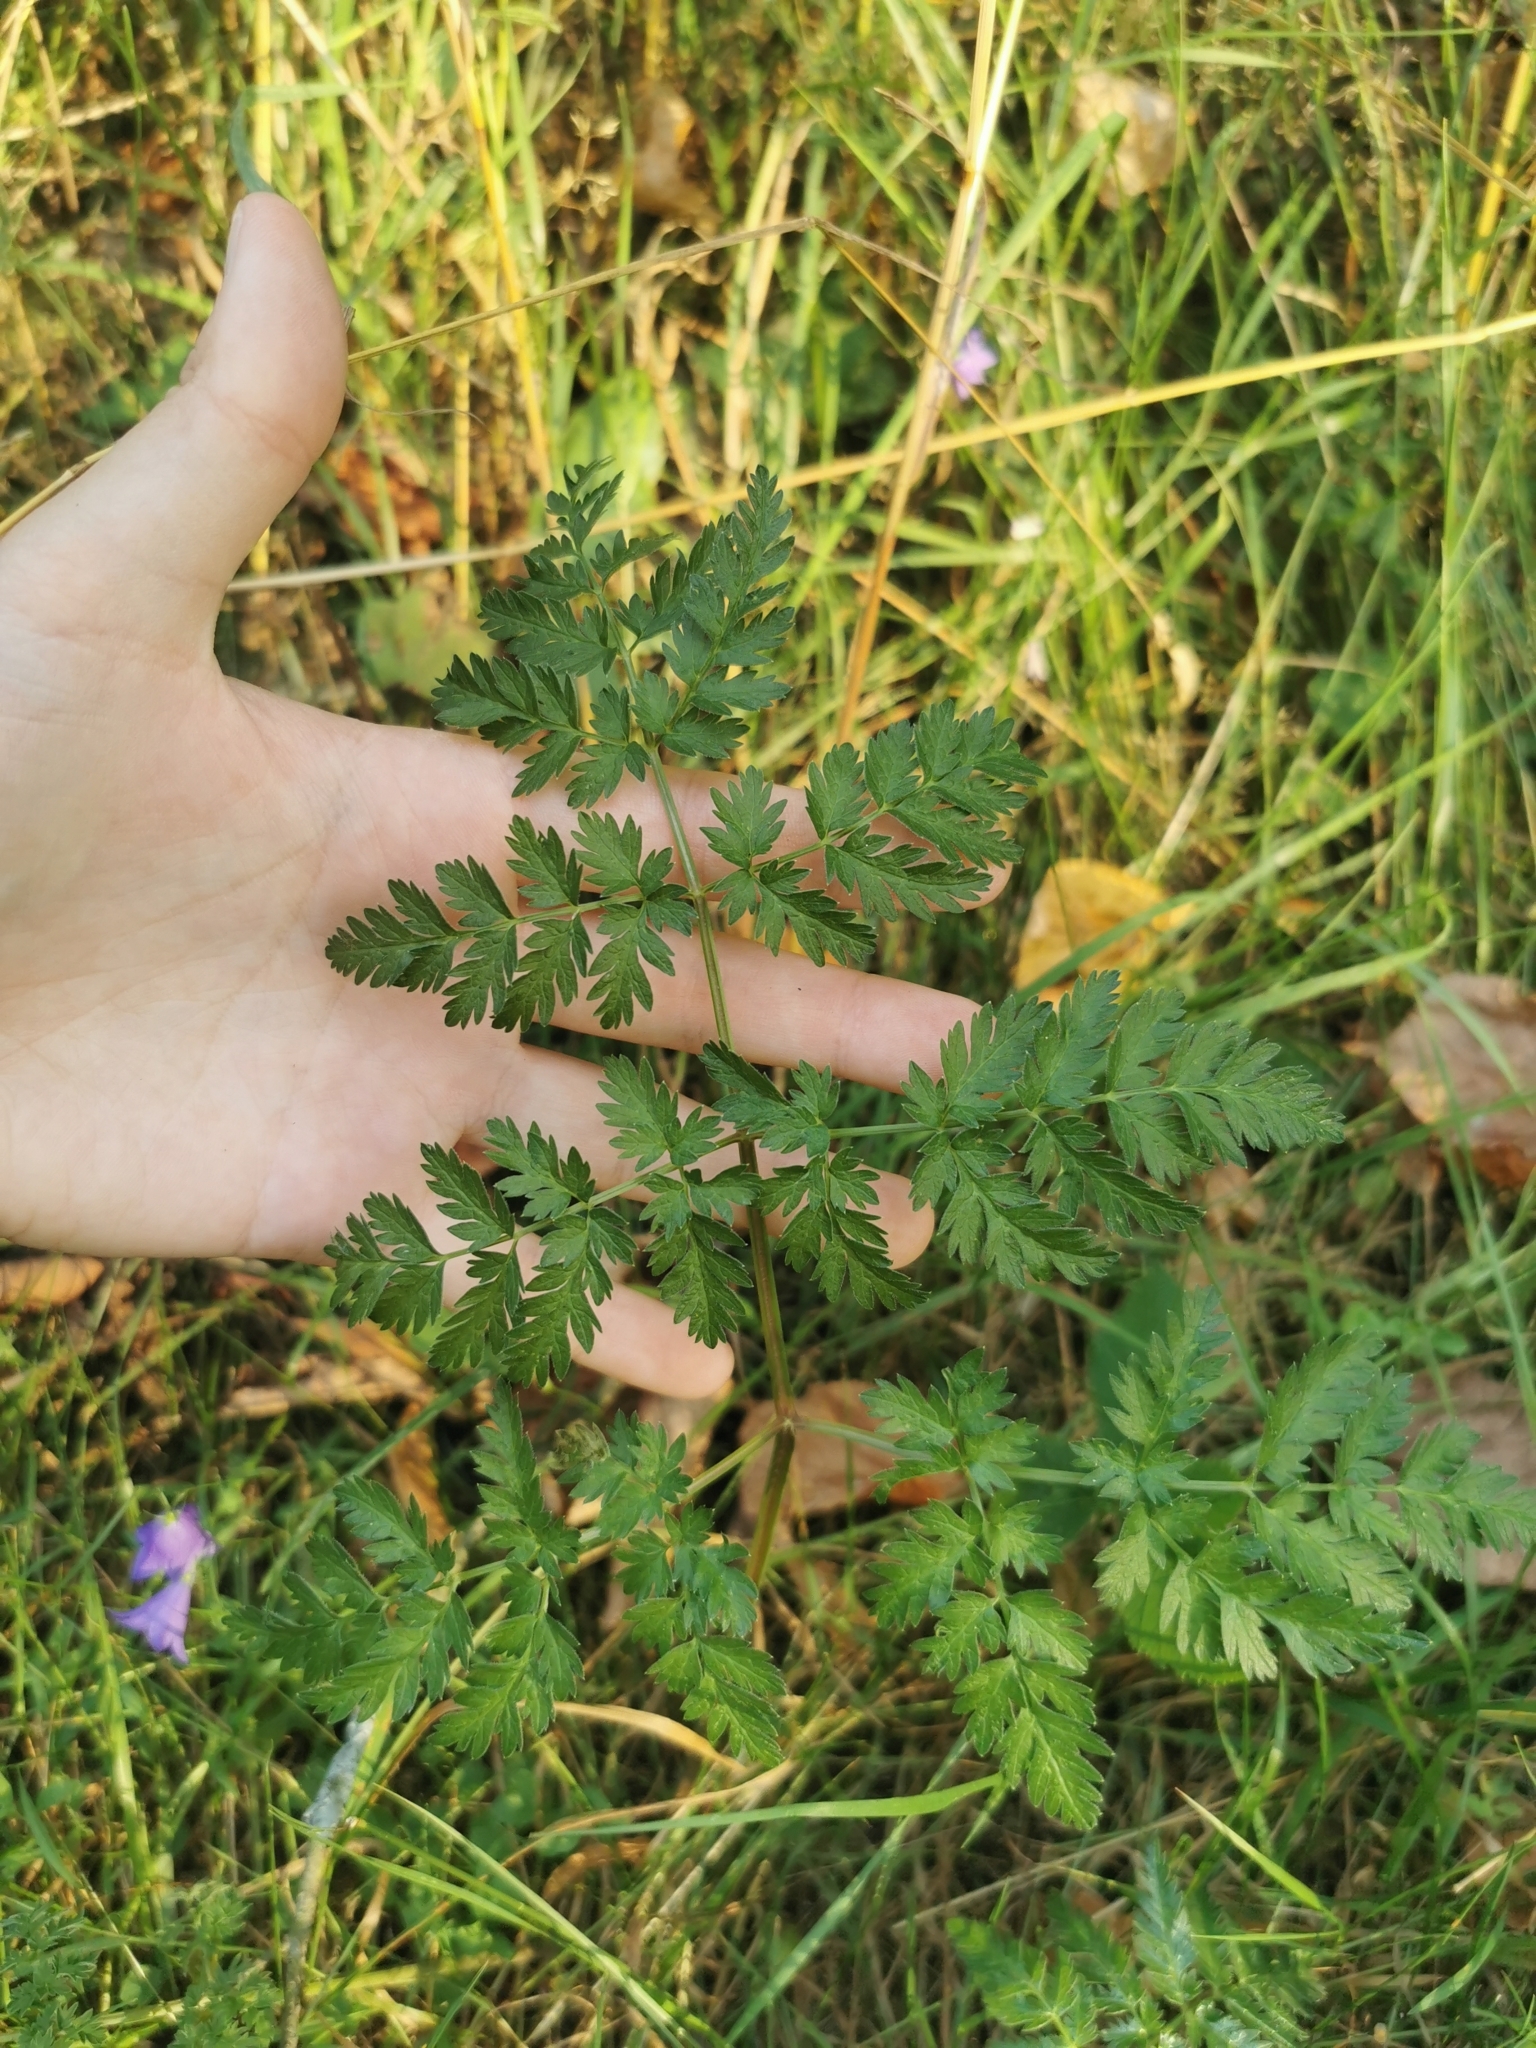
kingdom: Plantae
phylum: Tracheophyta
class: Magnoliopsida
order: Apiales
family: Apiaceae
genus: Anthriscus
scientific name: Anthriscus sylvestris
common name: Cow parsley
